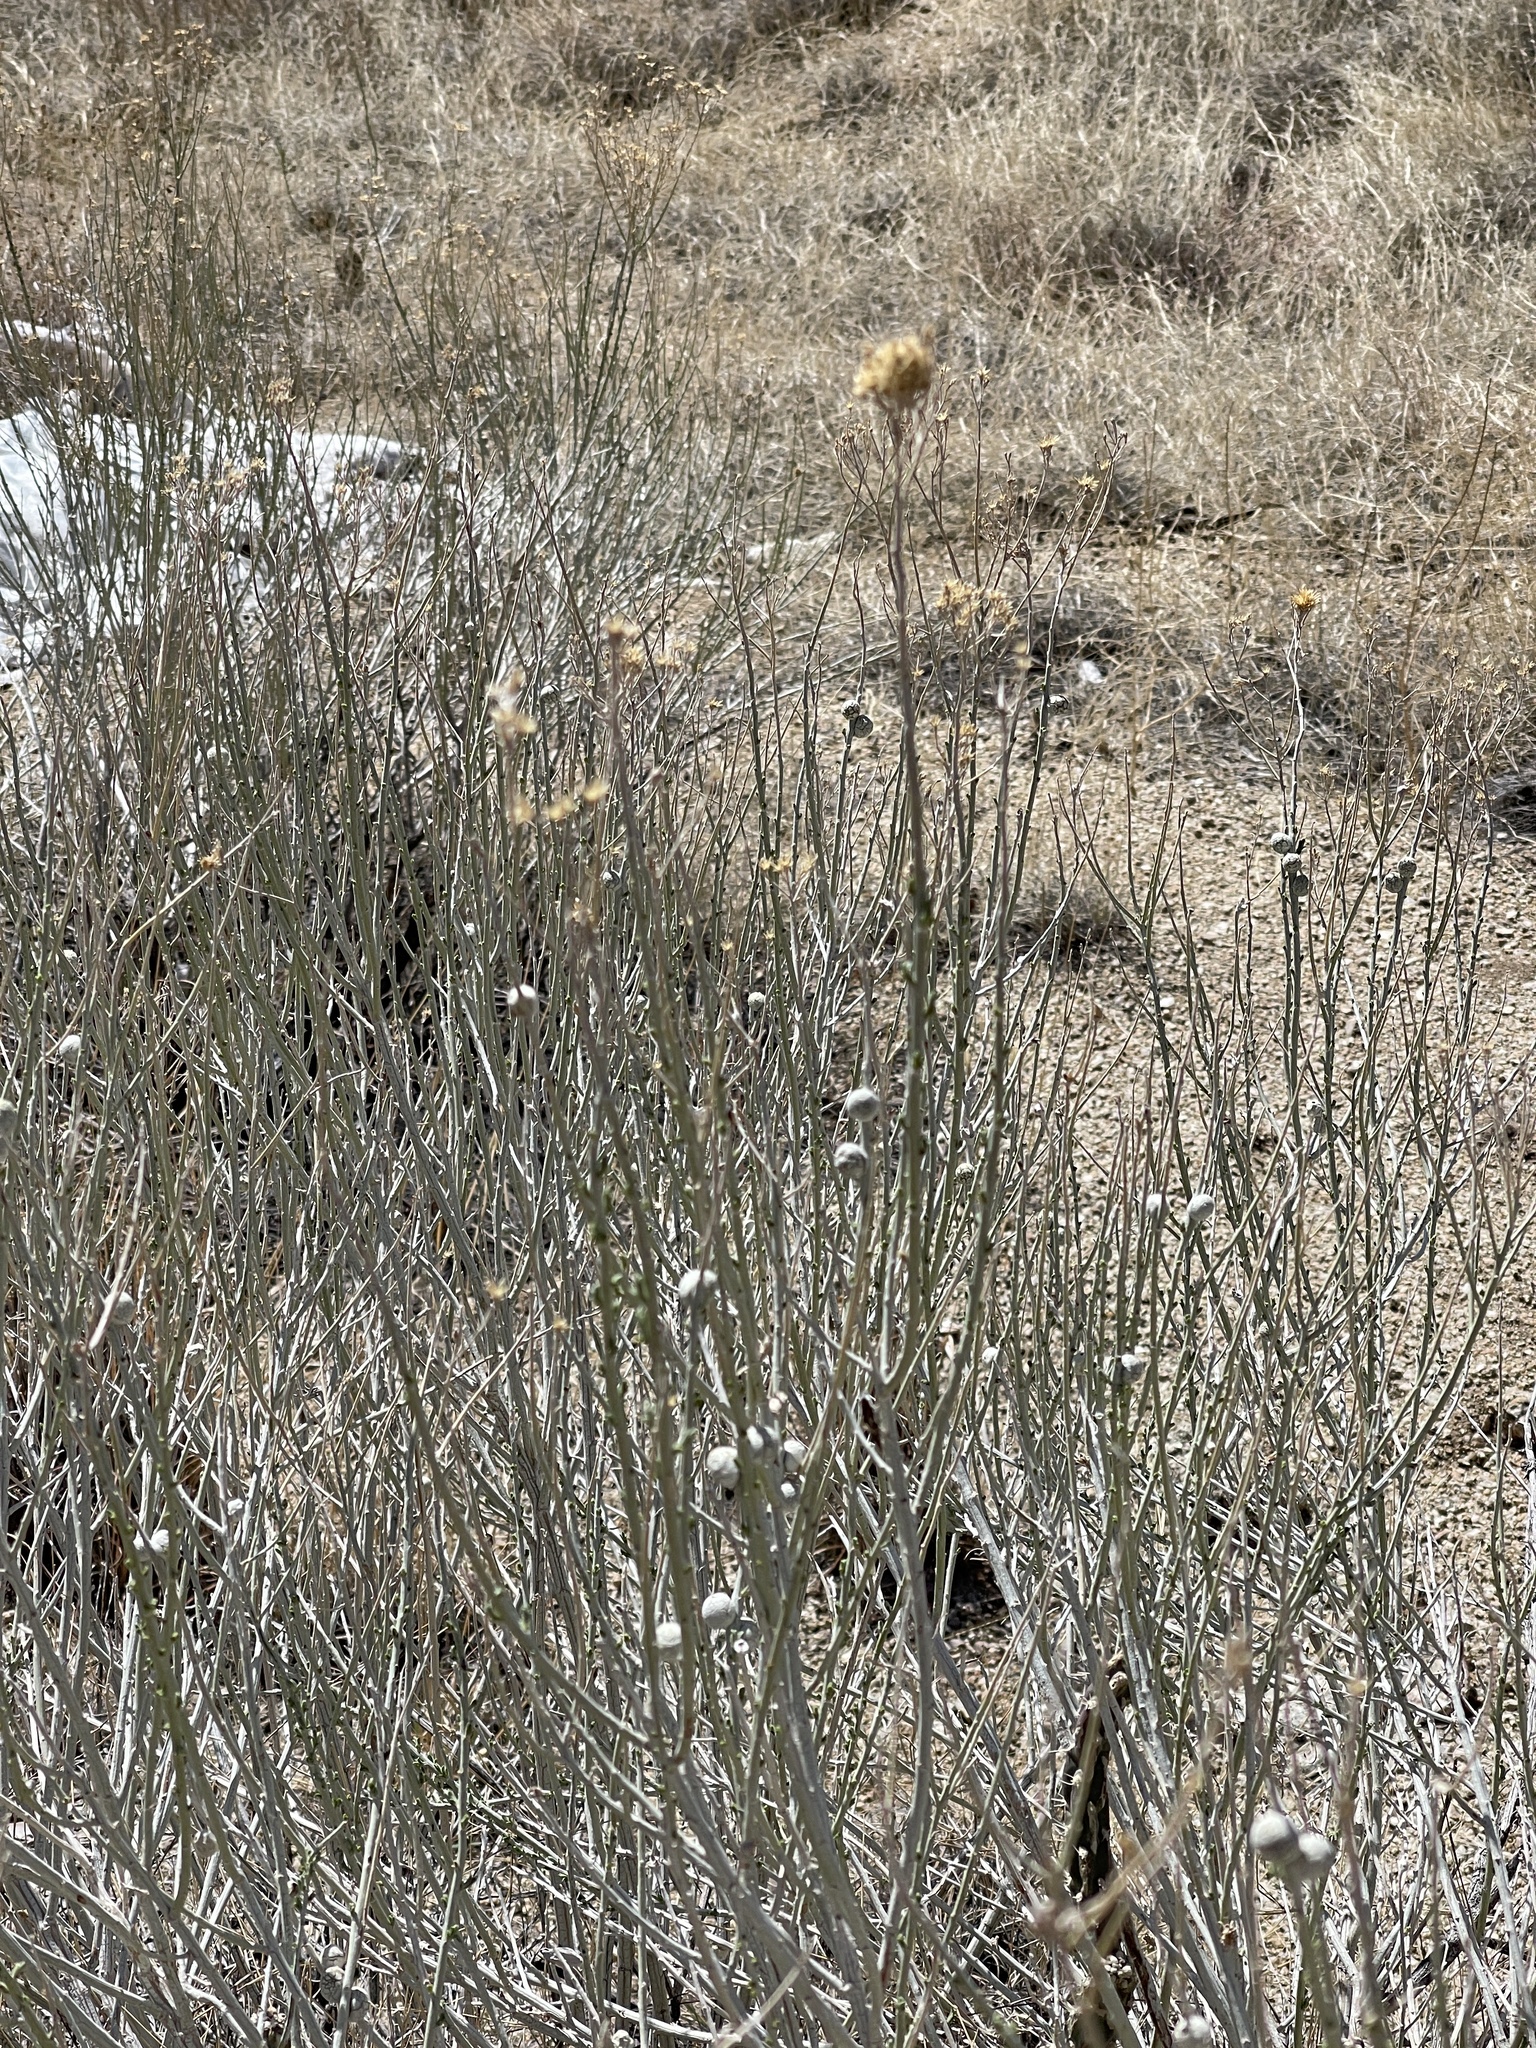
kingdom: Animalia
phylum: Arthropoda
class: Insecta
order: Diptera
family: Tephritidae
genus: Aciurina
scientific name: Aciurina trixa
